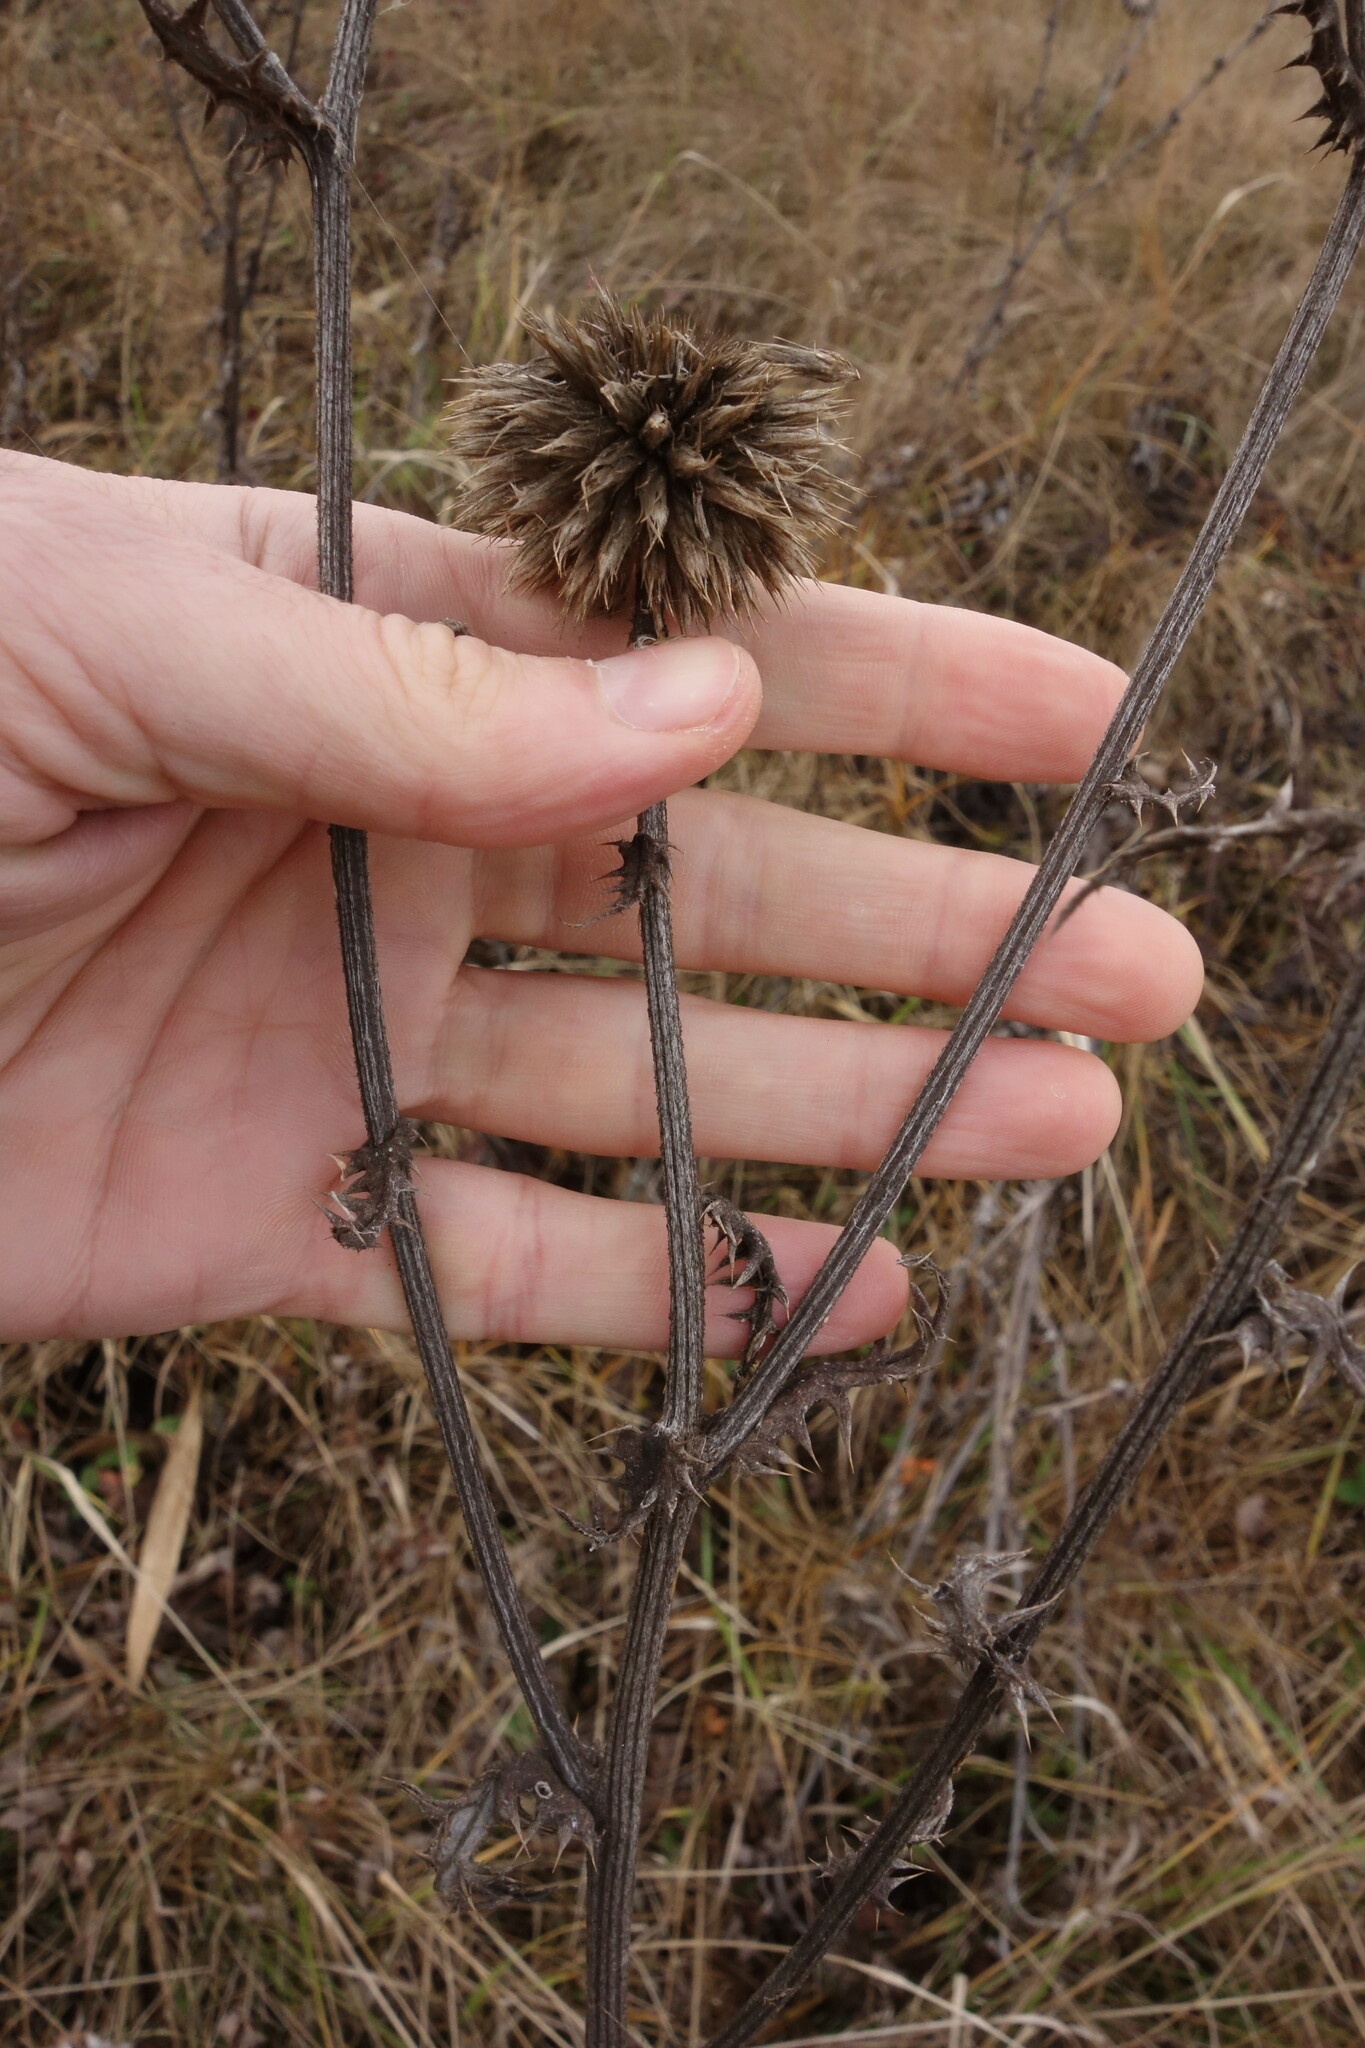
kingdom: Plantae
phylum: Tracheophyta
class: Magnoliopsida
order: Asterales
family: Asteraceae
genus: Echinops
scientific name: Echinops sphaerocephalus
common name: Glandular globe-thistle
